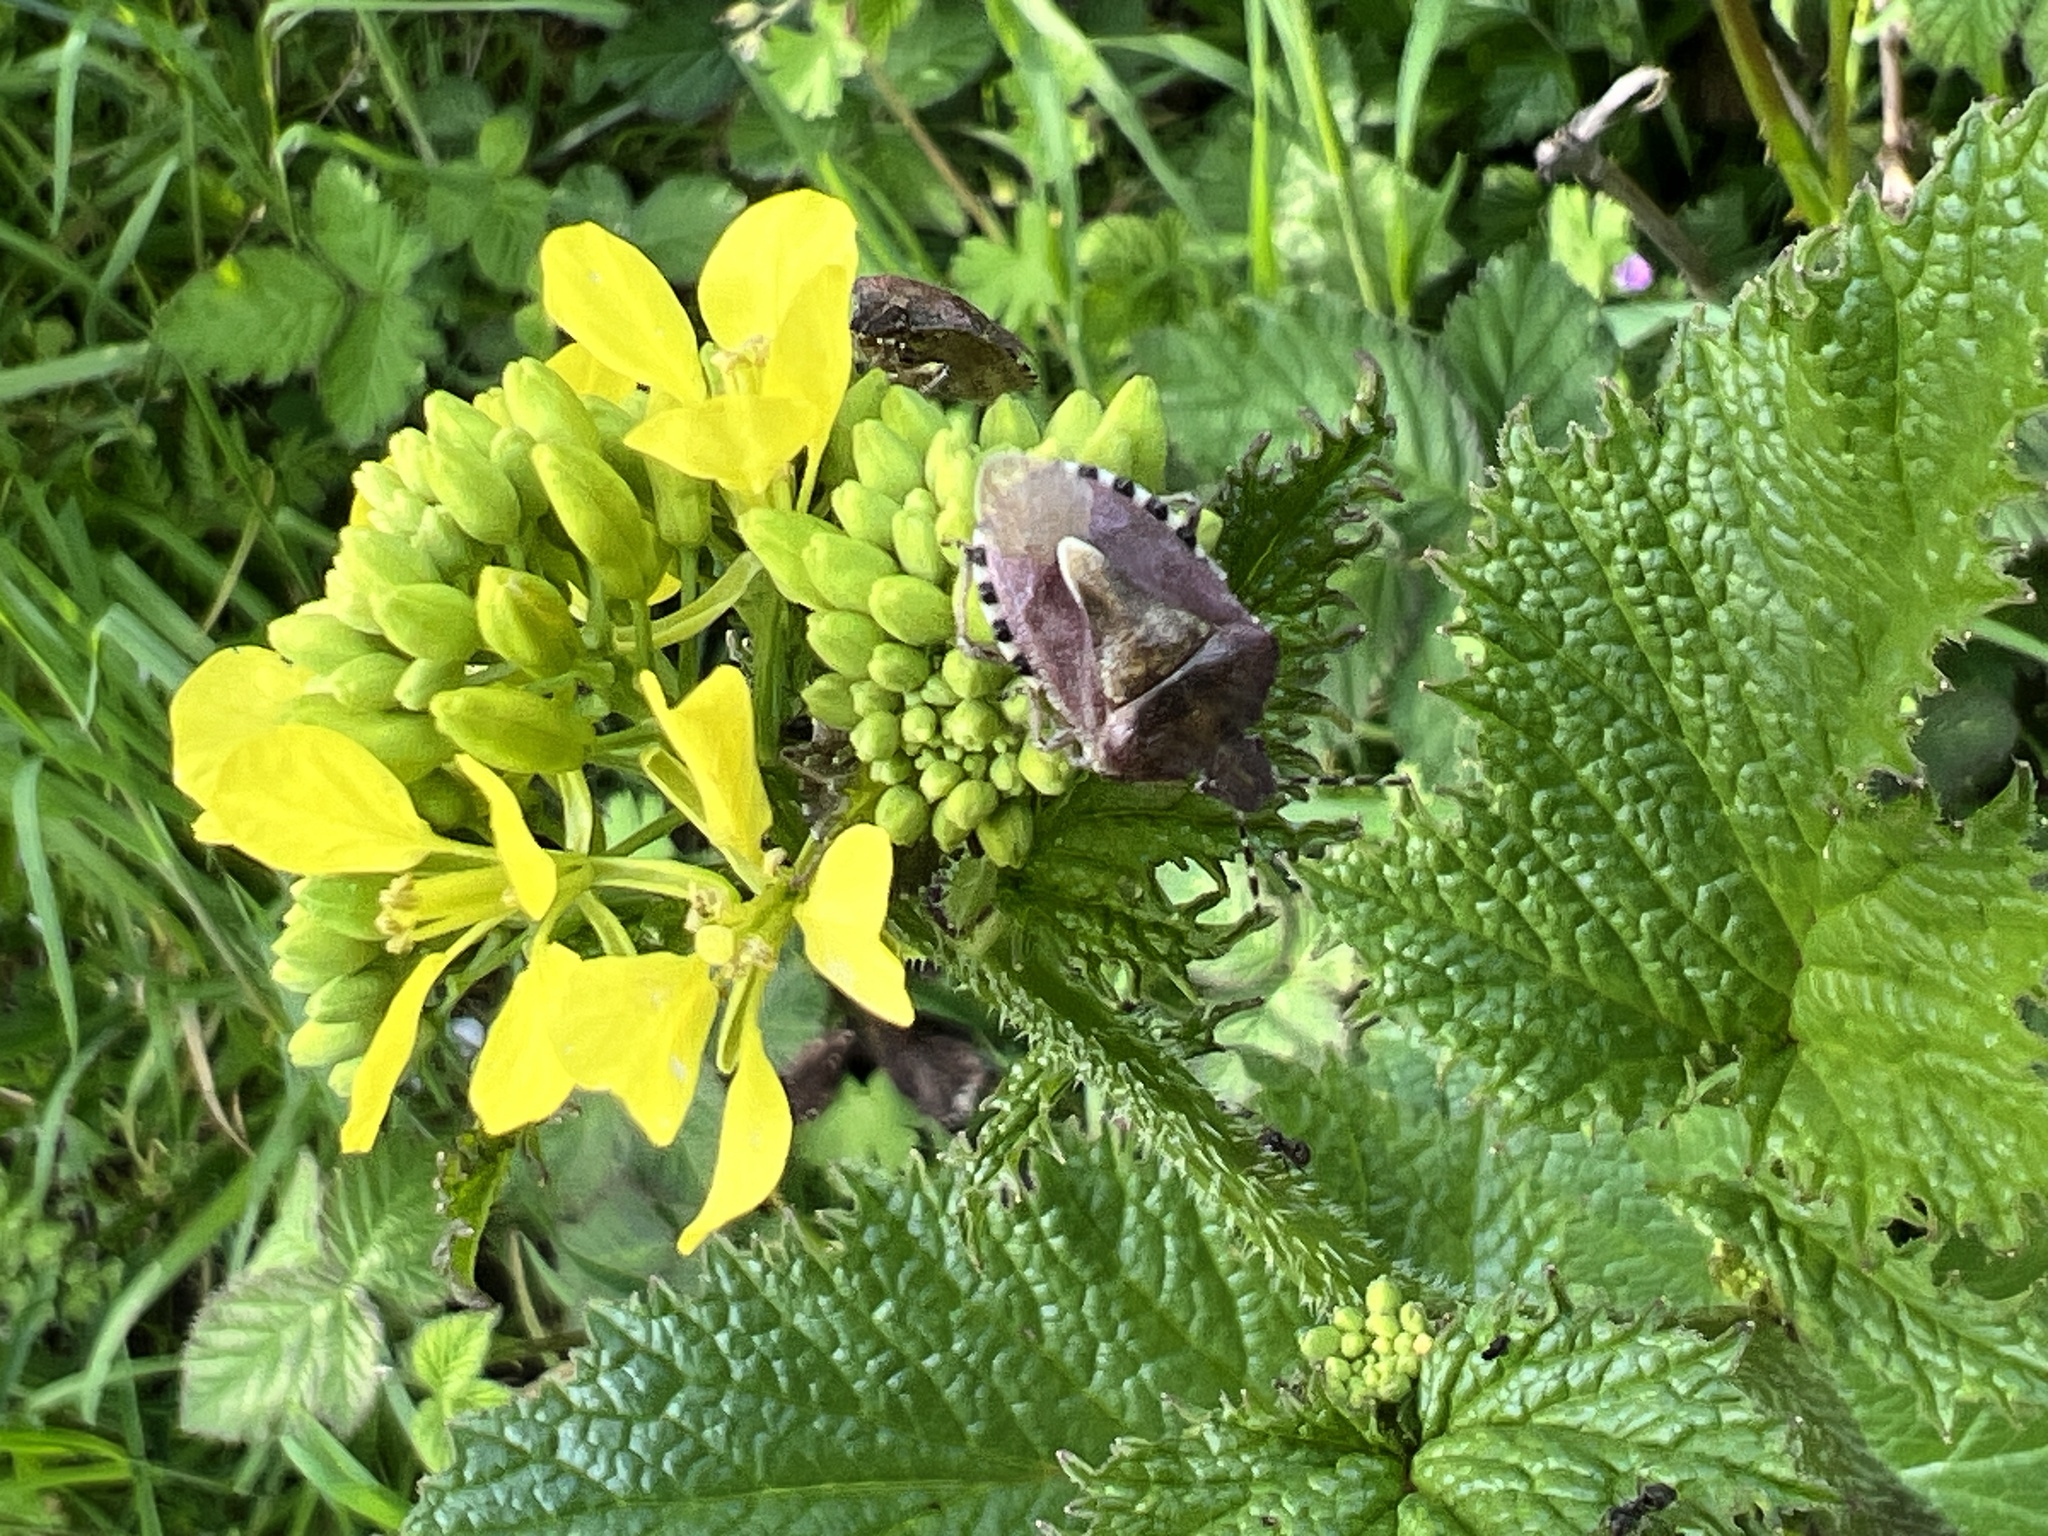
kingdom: Animalia
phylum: Arthropoda
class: Insecta
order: Hemiptera
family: Pentatomidae
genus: Dolycoris
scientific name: Dolycoris baccarum
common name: Sloe bug
